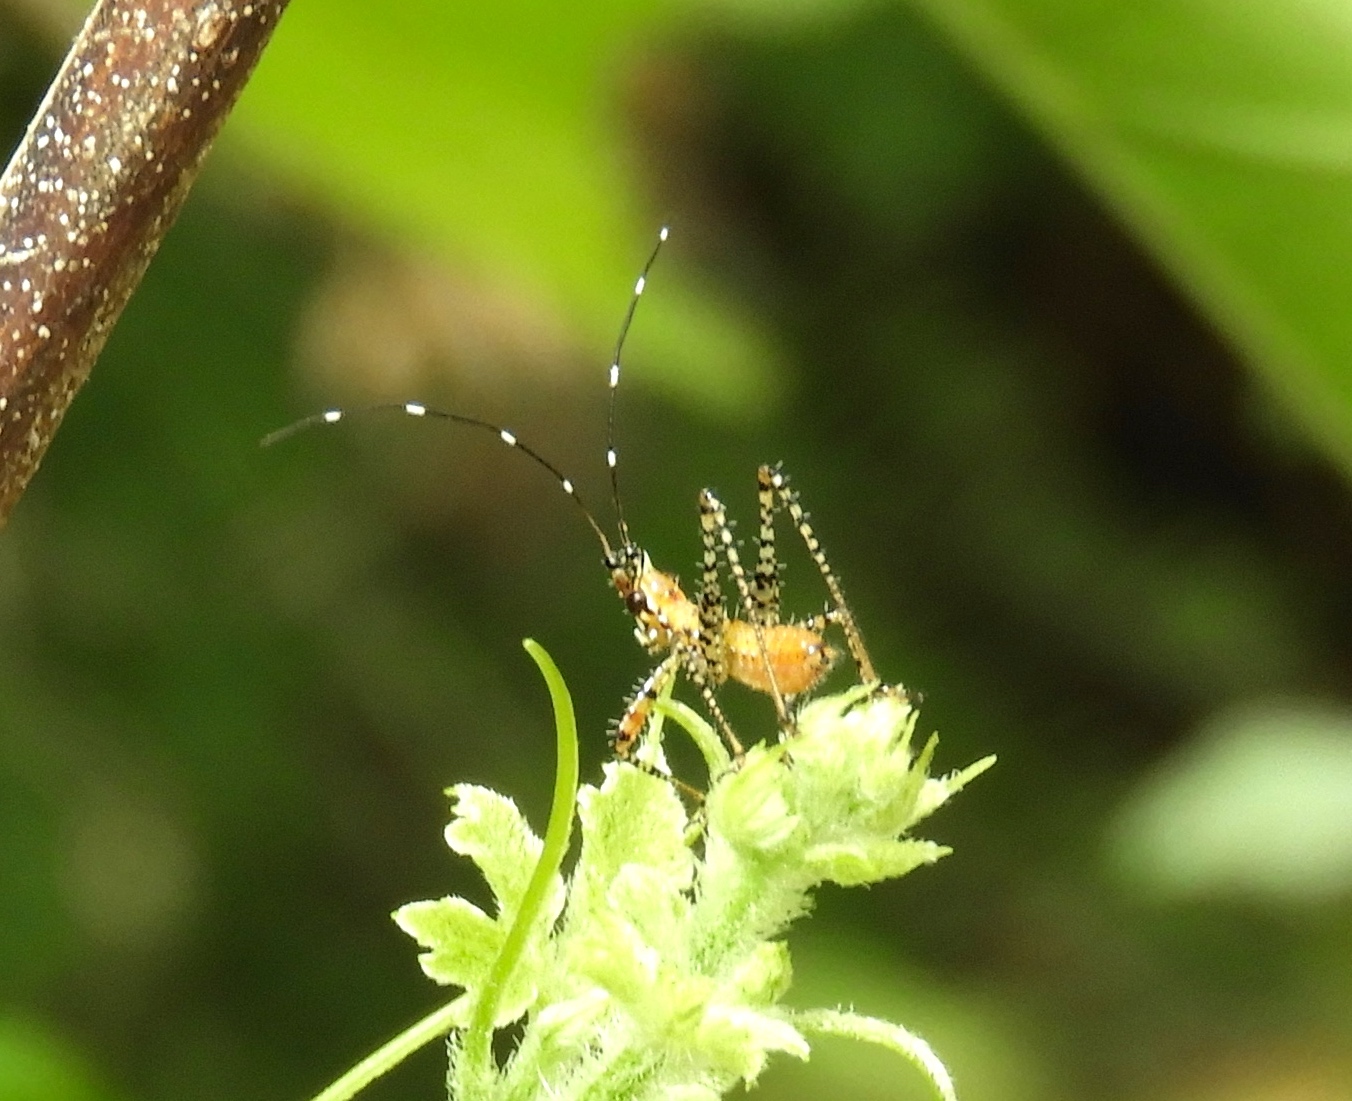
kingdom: Animalia
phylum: Arthropoda
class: Insecta
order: Orthoptera
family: Tettigoniidae
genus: Scudderia
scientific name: Scudderia
